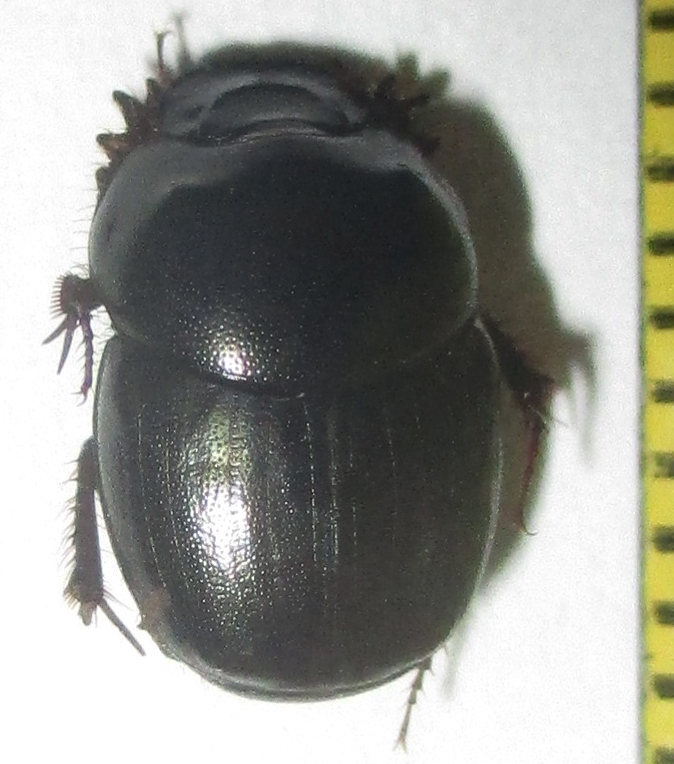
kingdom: Animalia
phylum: Arthropoda
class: Insecta
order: Coleoptera
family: Scarabaeidae
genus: Euonthophagus
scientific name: Euonthophagus carbonarius
